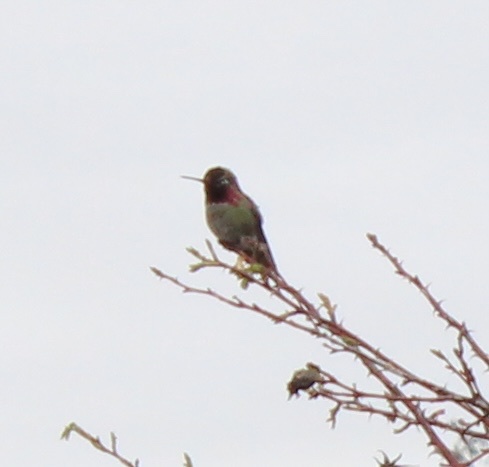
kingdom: Animalia
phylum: Chordata
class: Aves
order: Apodiformes
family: Trochilidae
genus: Calypte
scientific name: Calypte anna
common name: Anna's hummingbird
